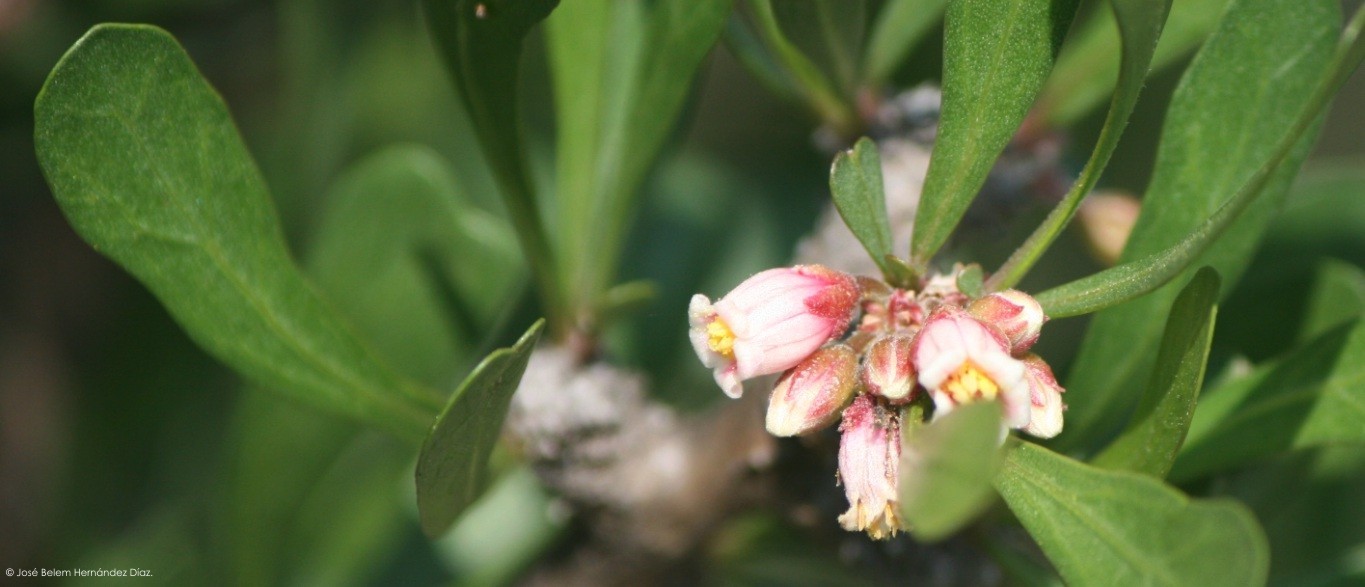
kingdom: Plantae
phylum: Tracheophyta
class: Magnoliopsida
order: Malpighiales
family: Euphorbiaceae
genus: Jatropha
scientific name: Jatropha dioica
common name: Leatherstem
